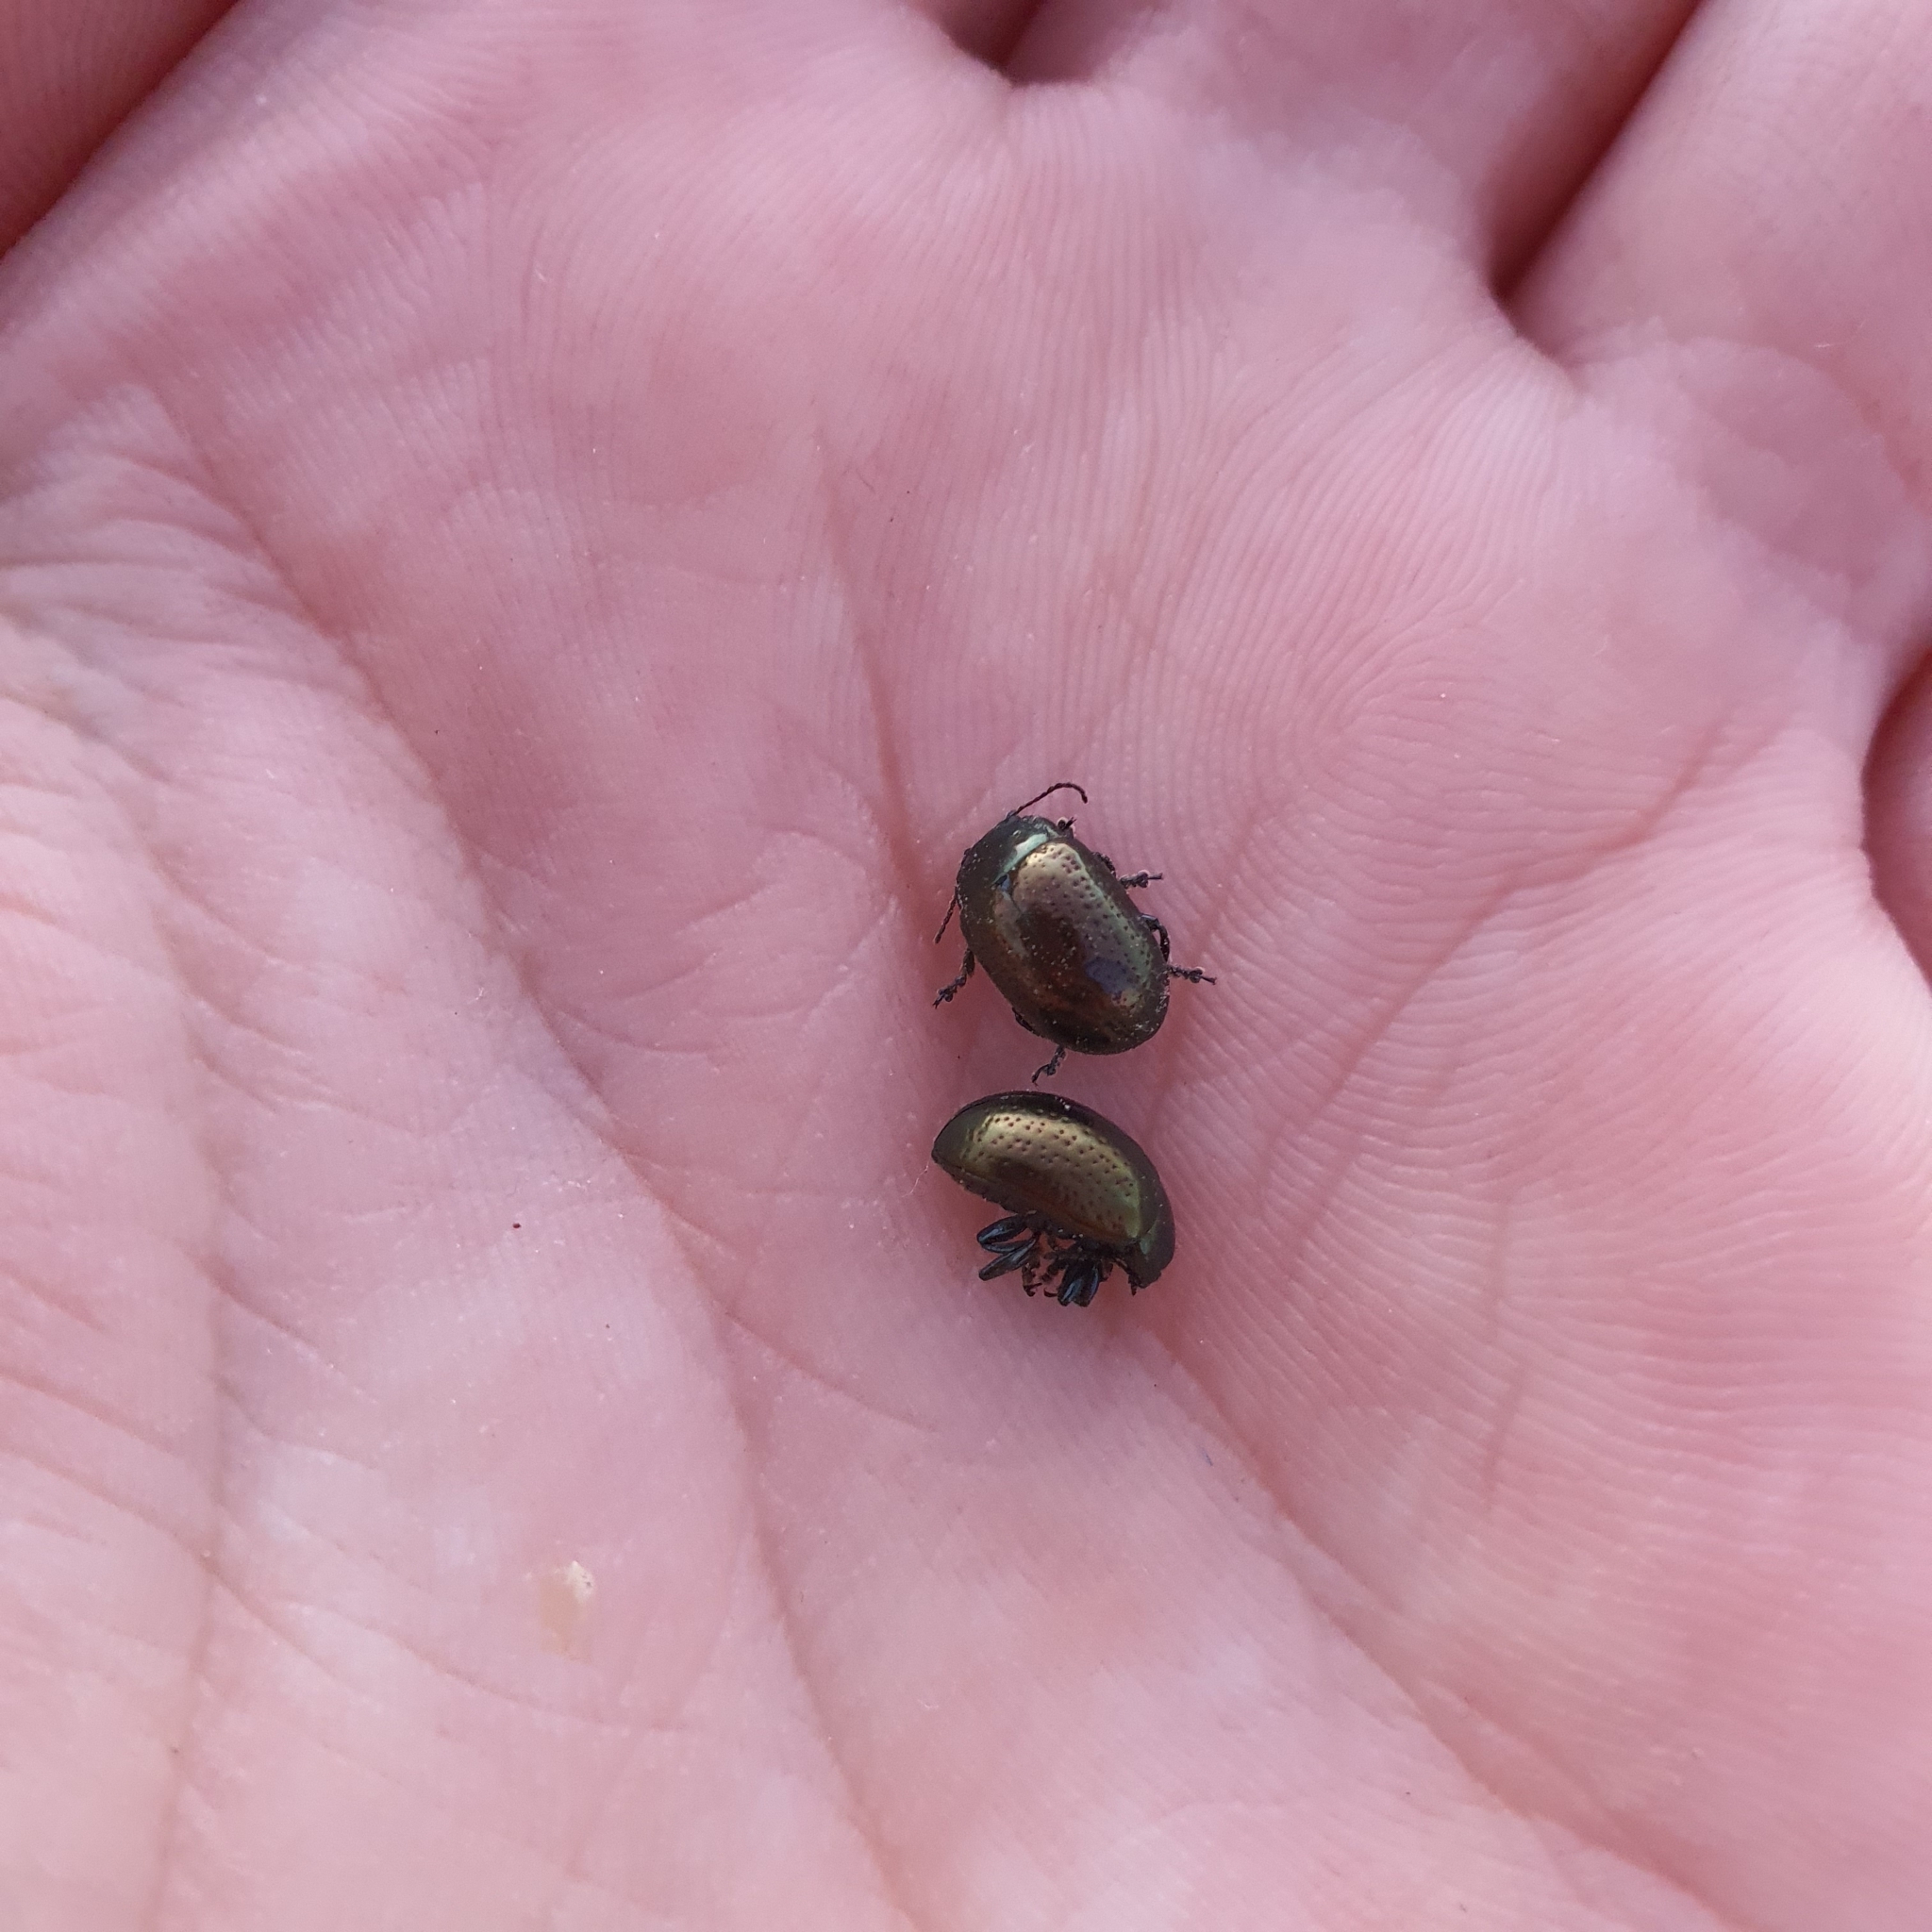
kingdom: Animalia
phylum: Arthropoda
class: Insecta
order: Coleoptera
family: Chrysomelidae
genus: Chrysolina
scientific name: Chrysolina hyperici
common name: St. johnswort beetle
